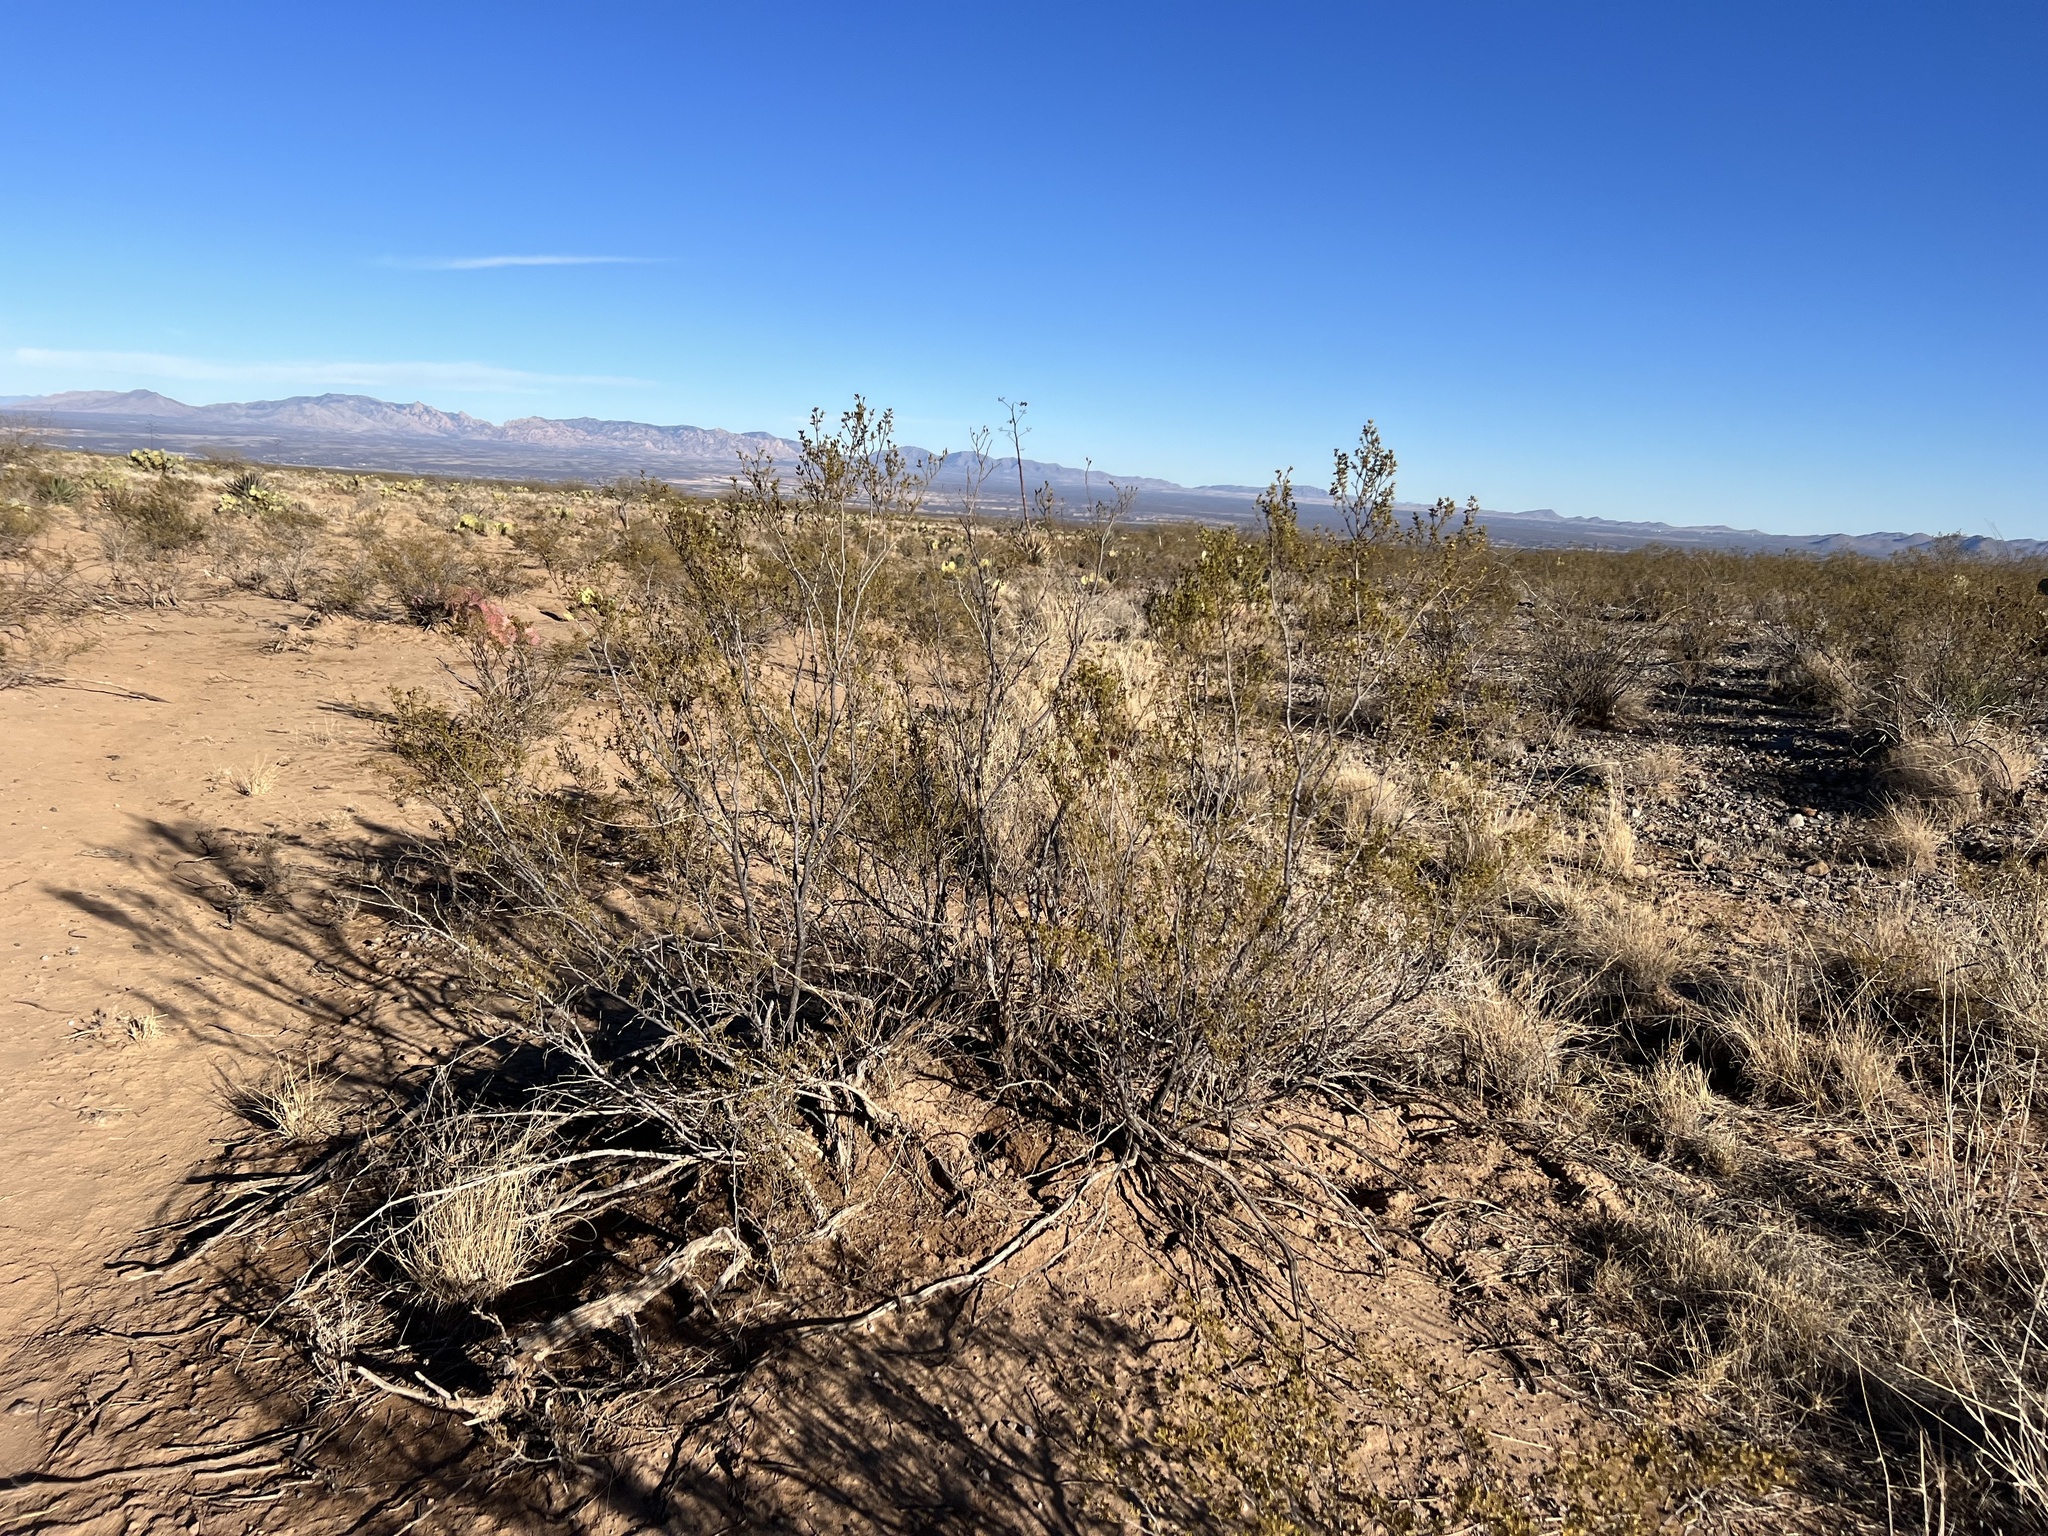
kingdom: Plantae
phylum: Tracheophyta
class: Magnoliopsida
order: Zygophyllales
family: Zygophyllaceae
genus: Larrea
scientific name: Larrea tridentata
